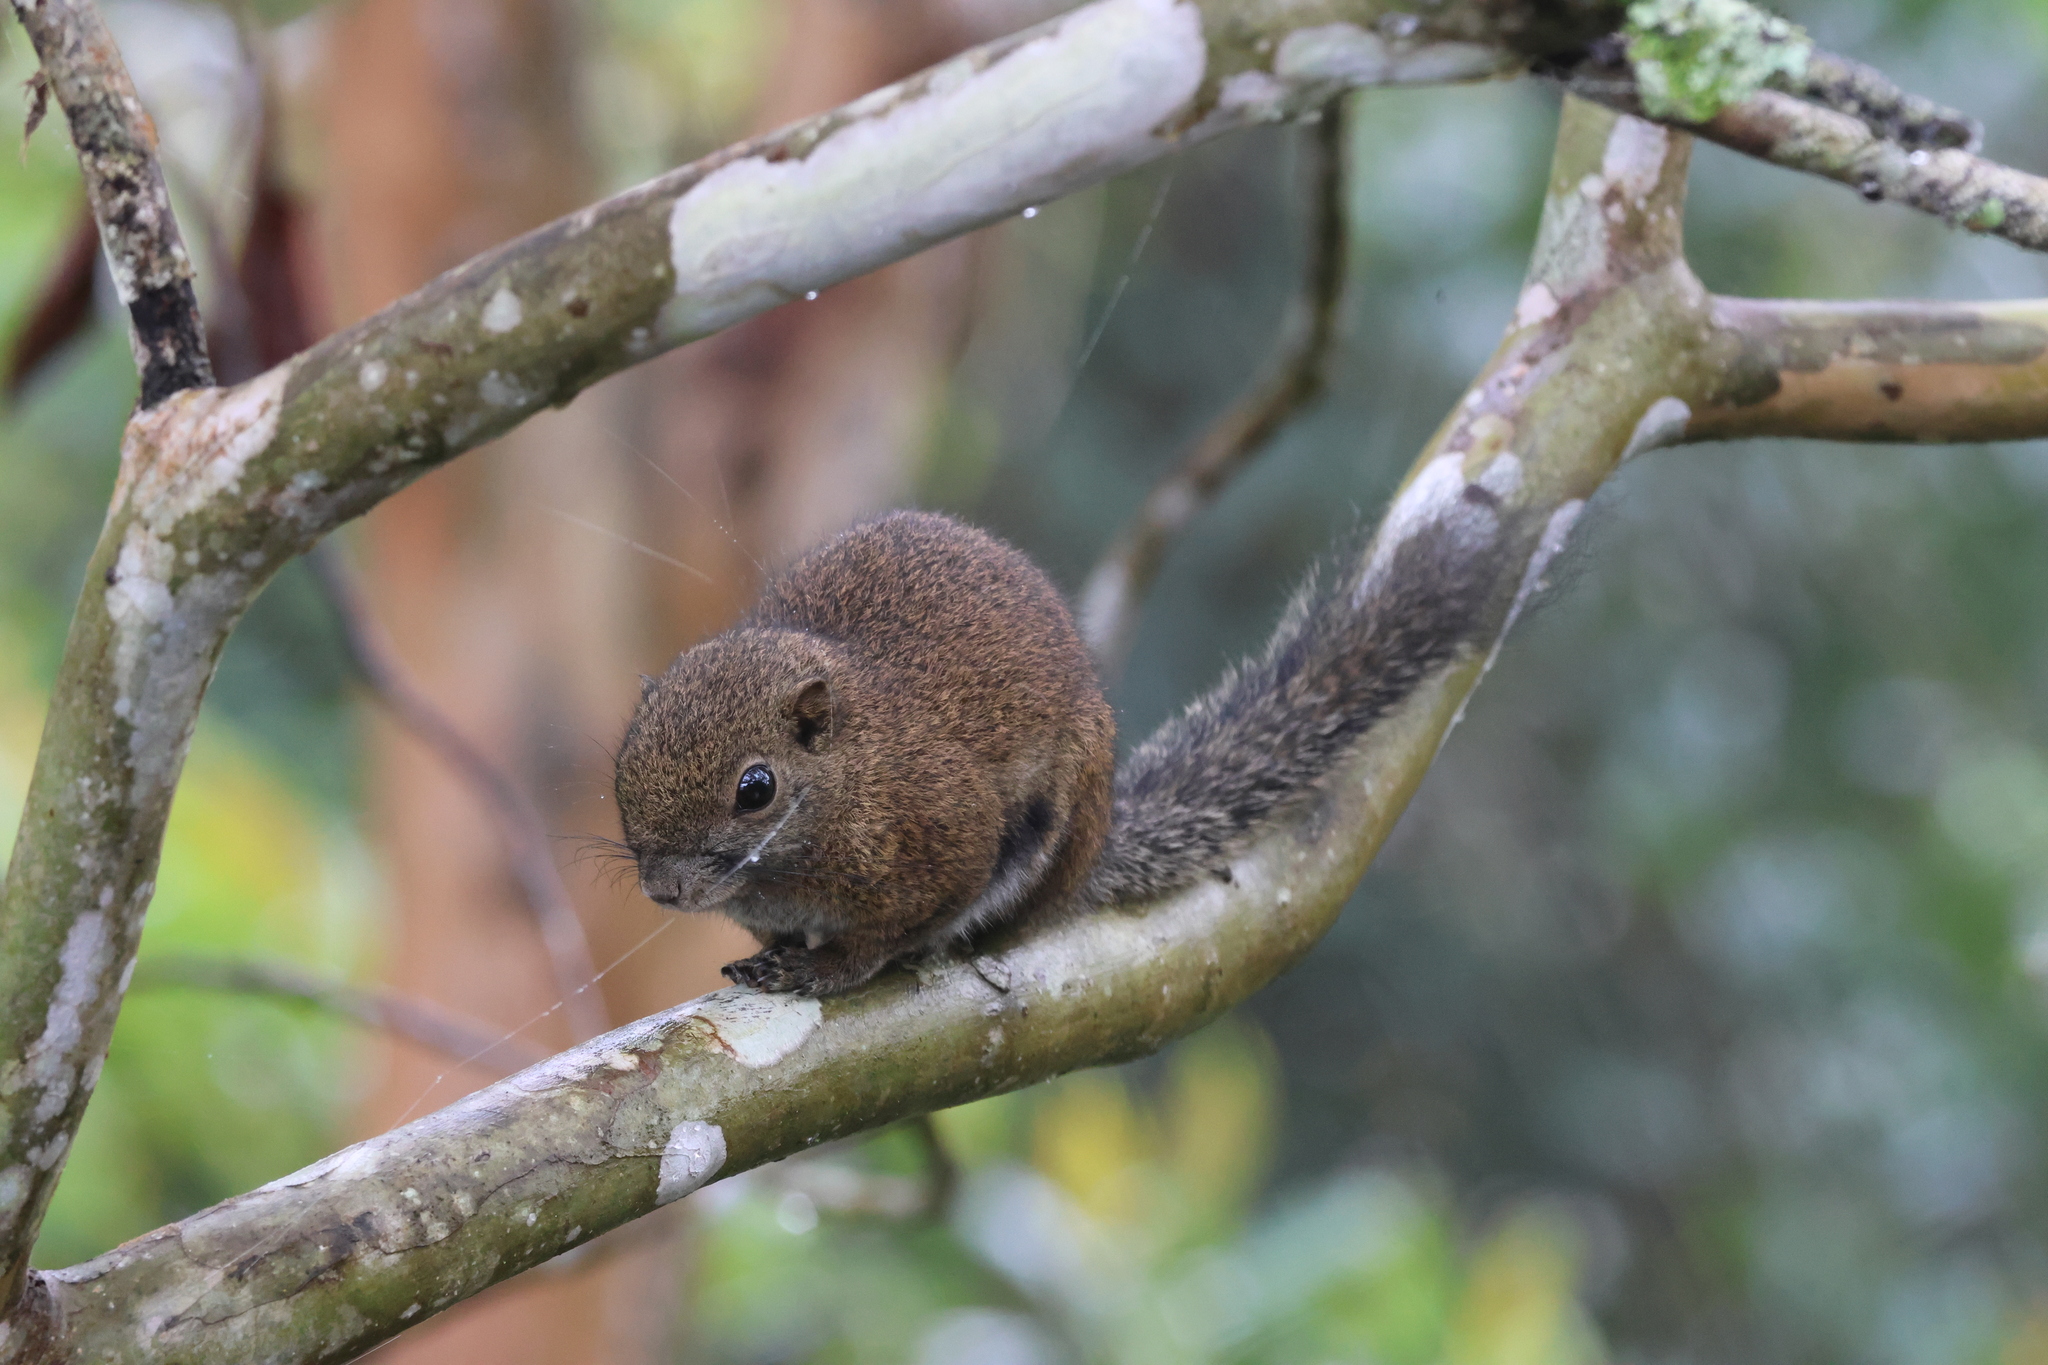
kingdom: Animalia
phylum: Chordata
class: Mammalia
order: Rodentia
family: Sciuridae
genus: Callosciurus
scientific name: Callosciurus orestes
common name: Borneo black-banded squirrel
